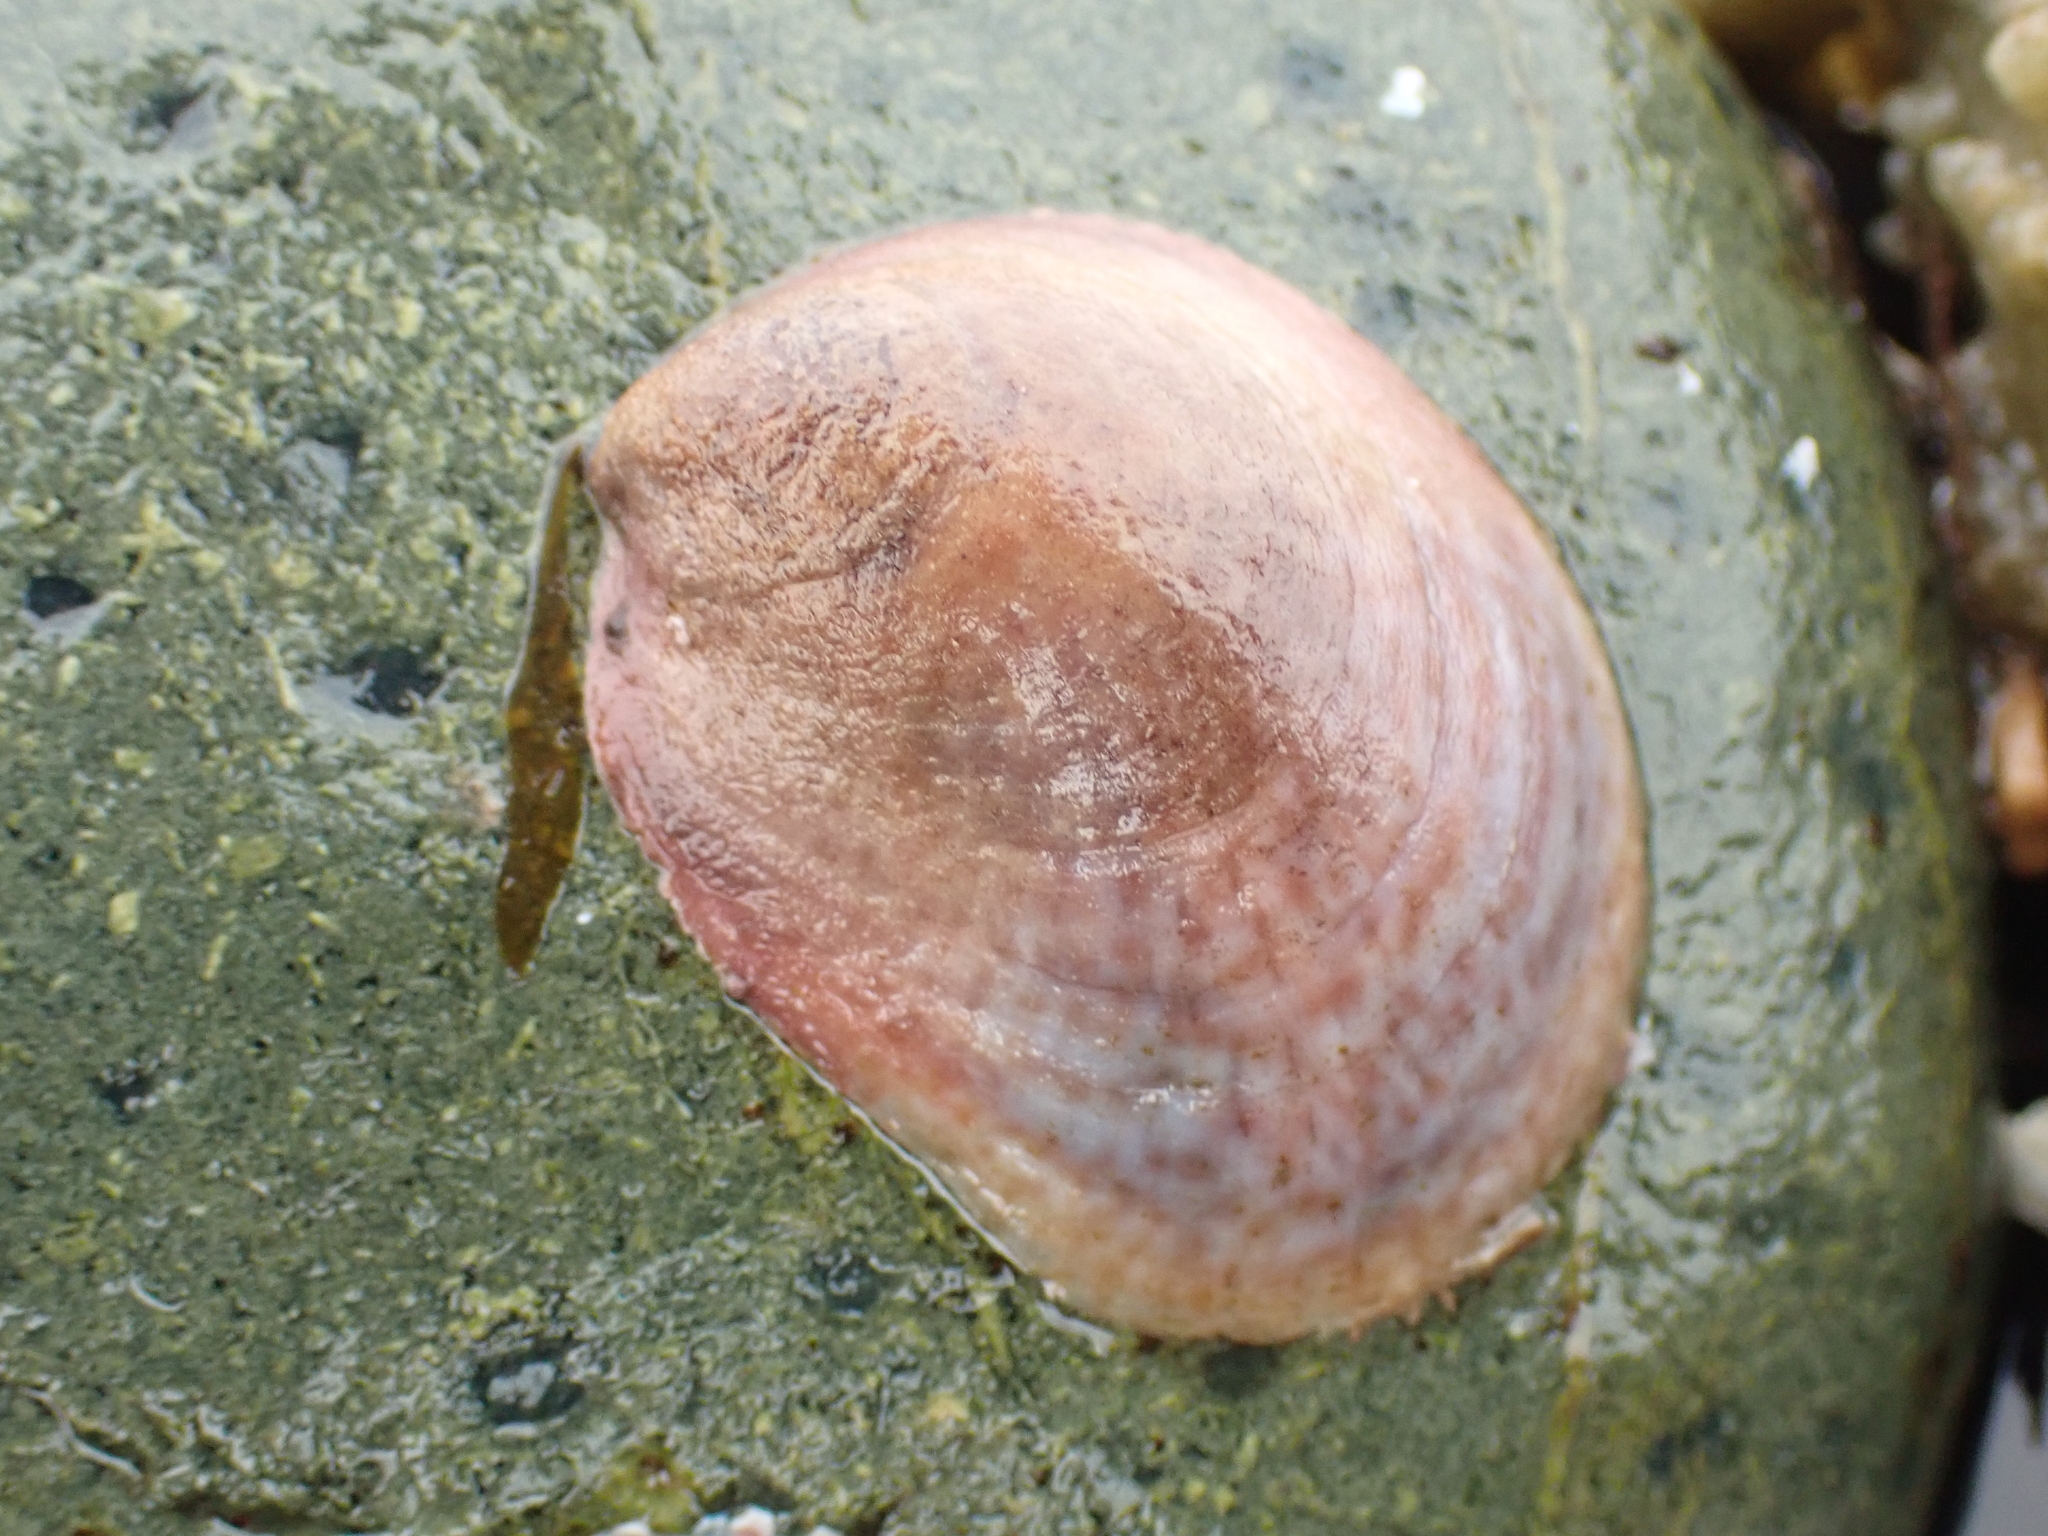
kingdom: Animalia
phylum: Mollusca
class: Gastropoda
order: Littorinimorpha
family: Calyptraeidae
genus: Crepidula
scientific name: Crepidula fornicata
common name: Slipper limpet
